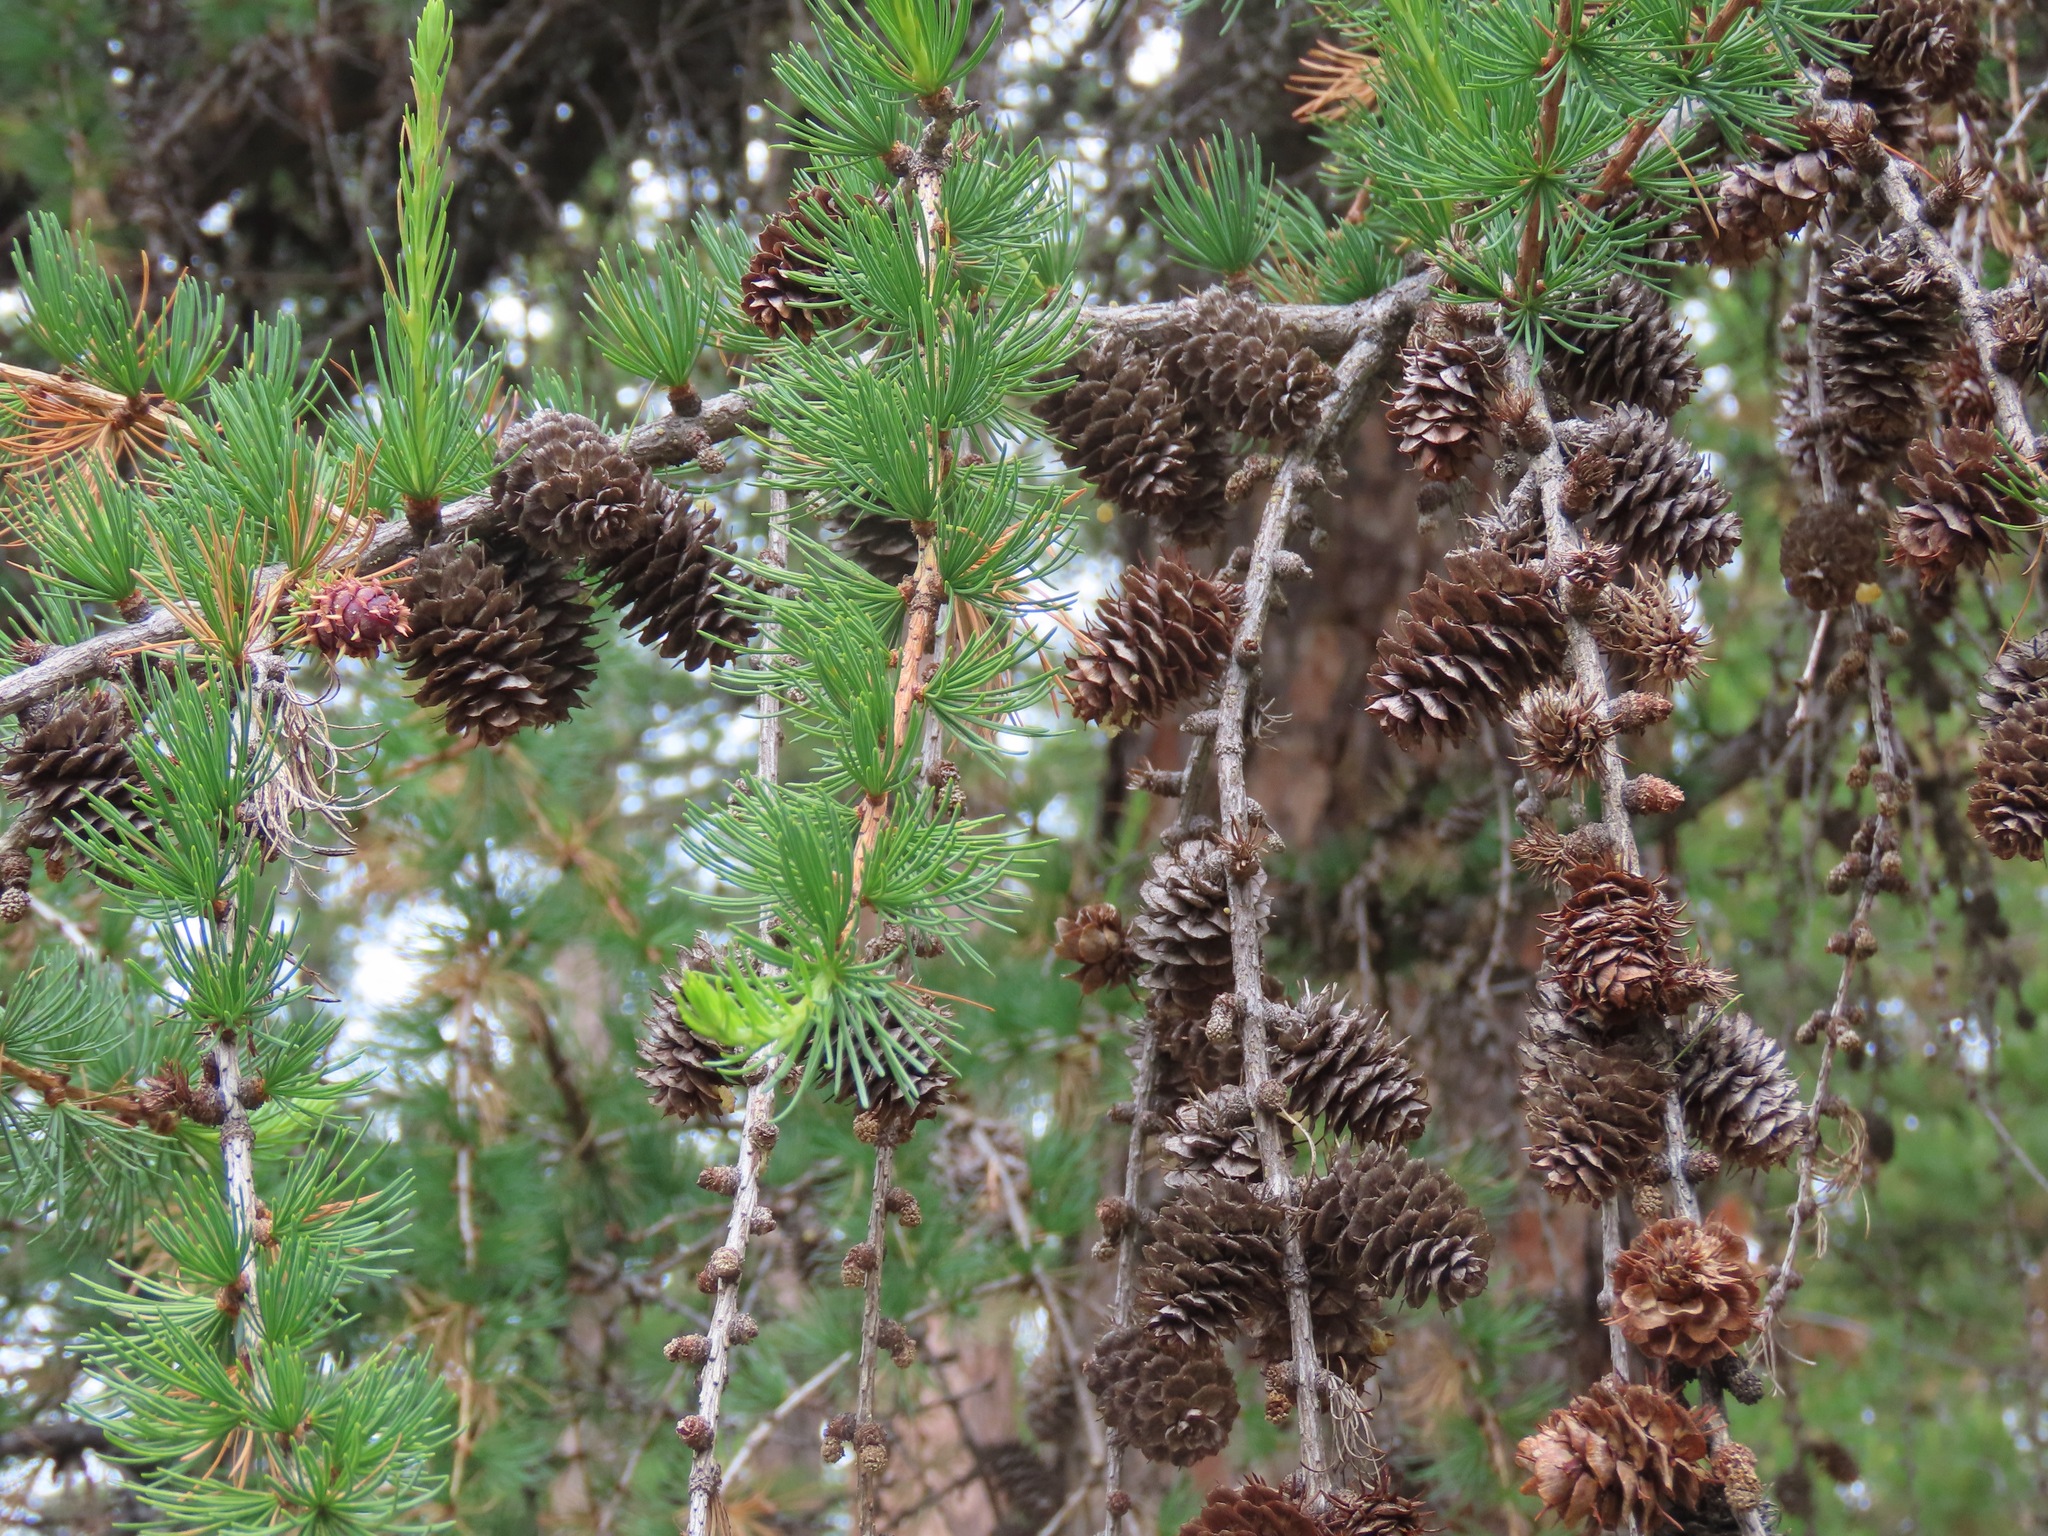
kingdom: Plantae
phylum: Tracheophyta
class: Pinopsida
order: Pinales
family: Pinaceae
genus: Larix
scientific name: Larix occidentalis
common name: Western larch
